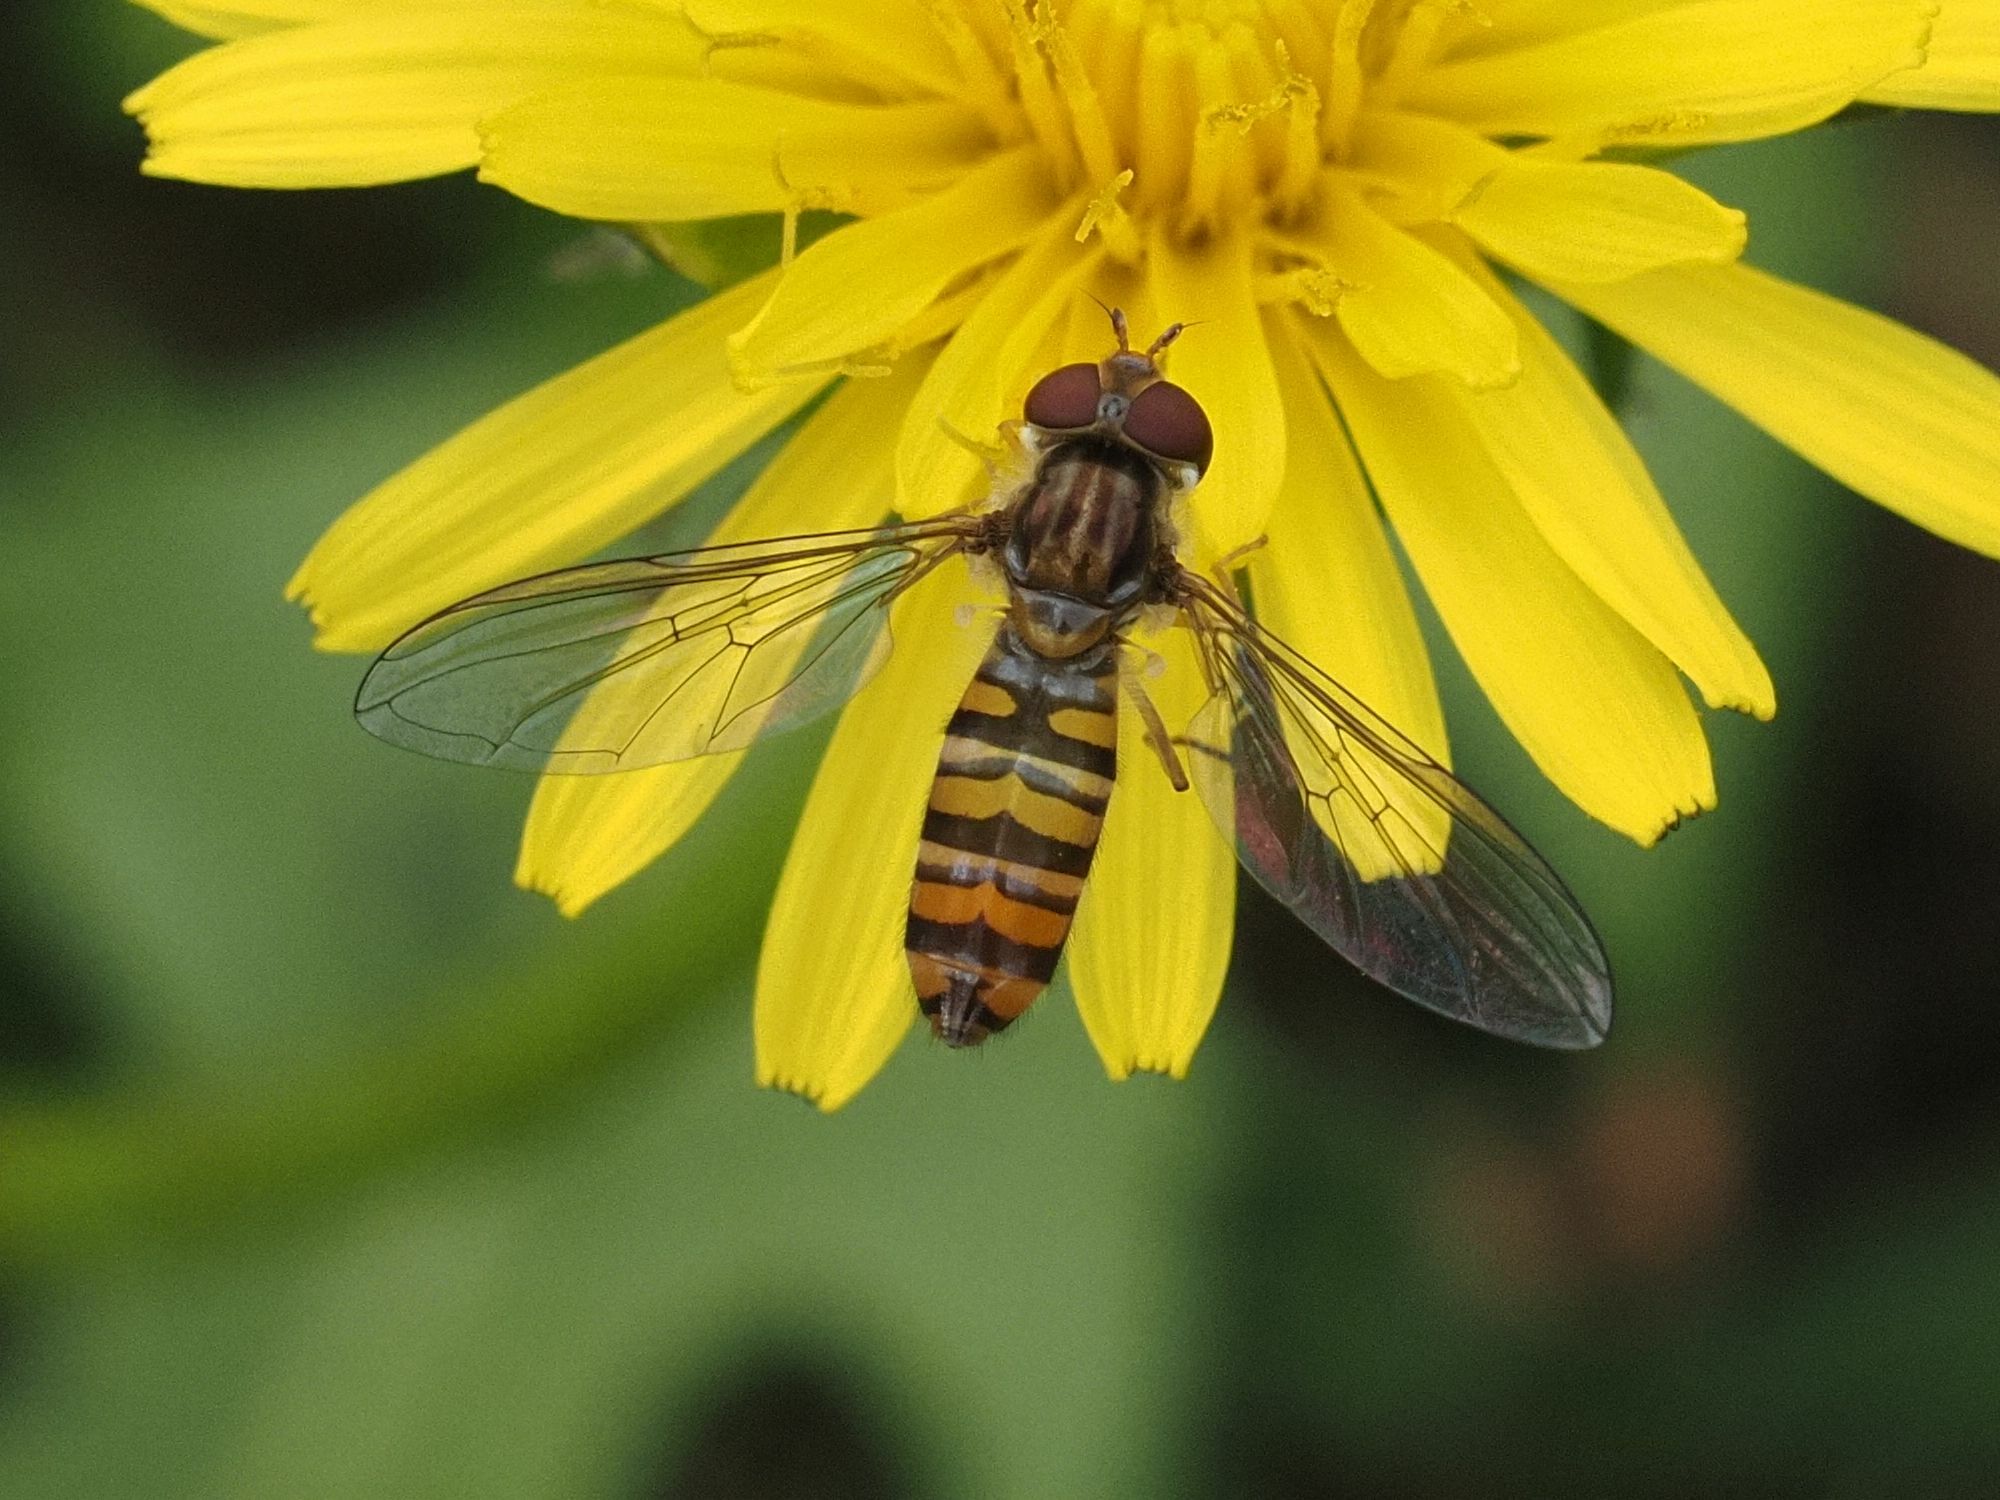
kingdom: Animalia
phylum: Arthropoda
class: Insecta
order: Diptera
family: Syrphidae
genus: Episyrphus
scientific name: Episyrphus balteatus
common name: Marmalade hoverfly
